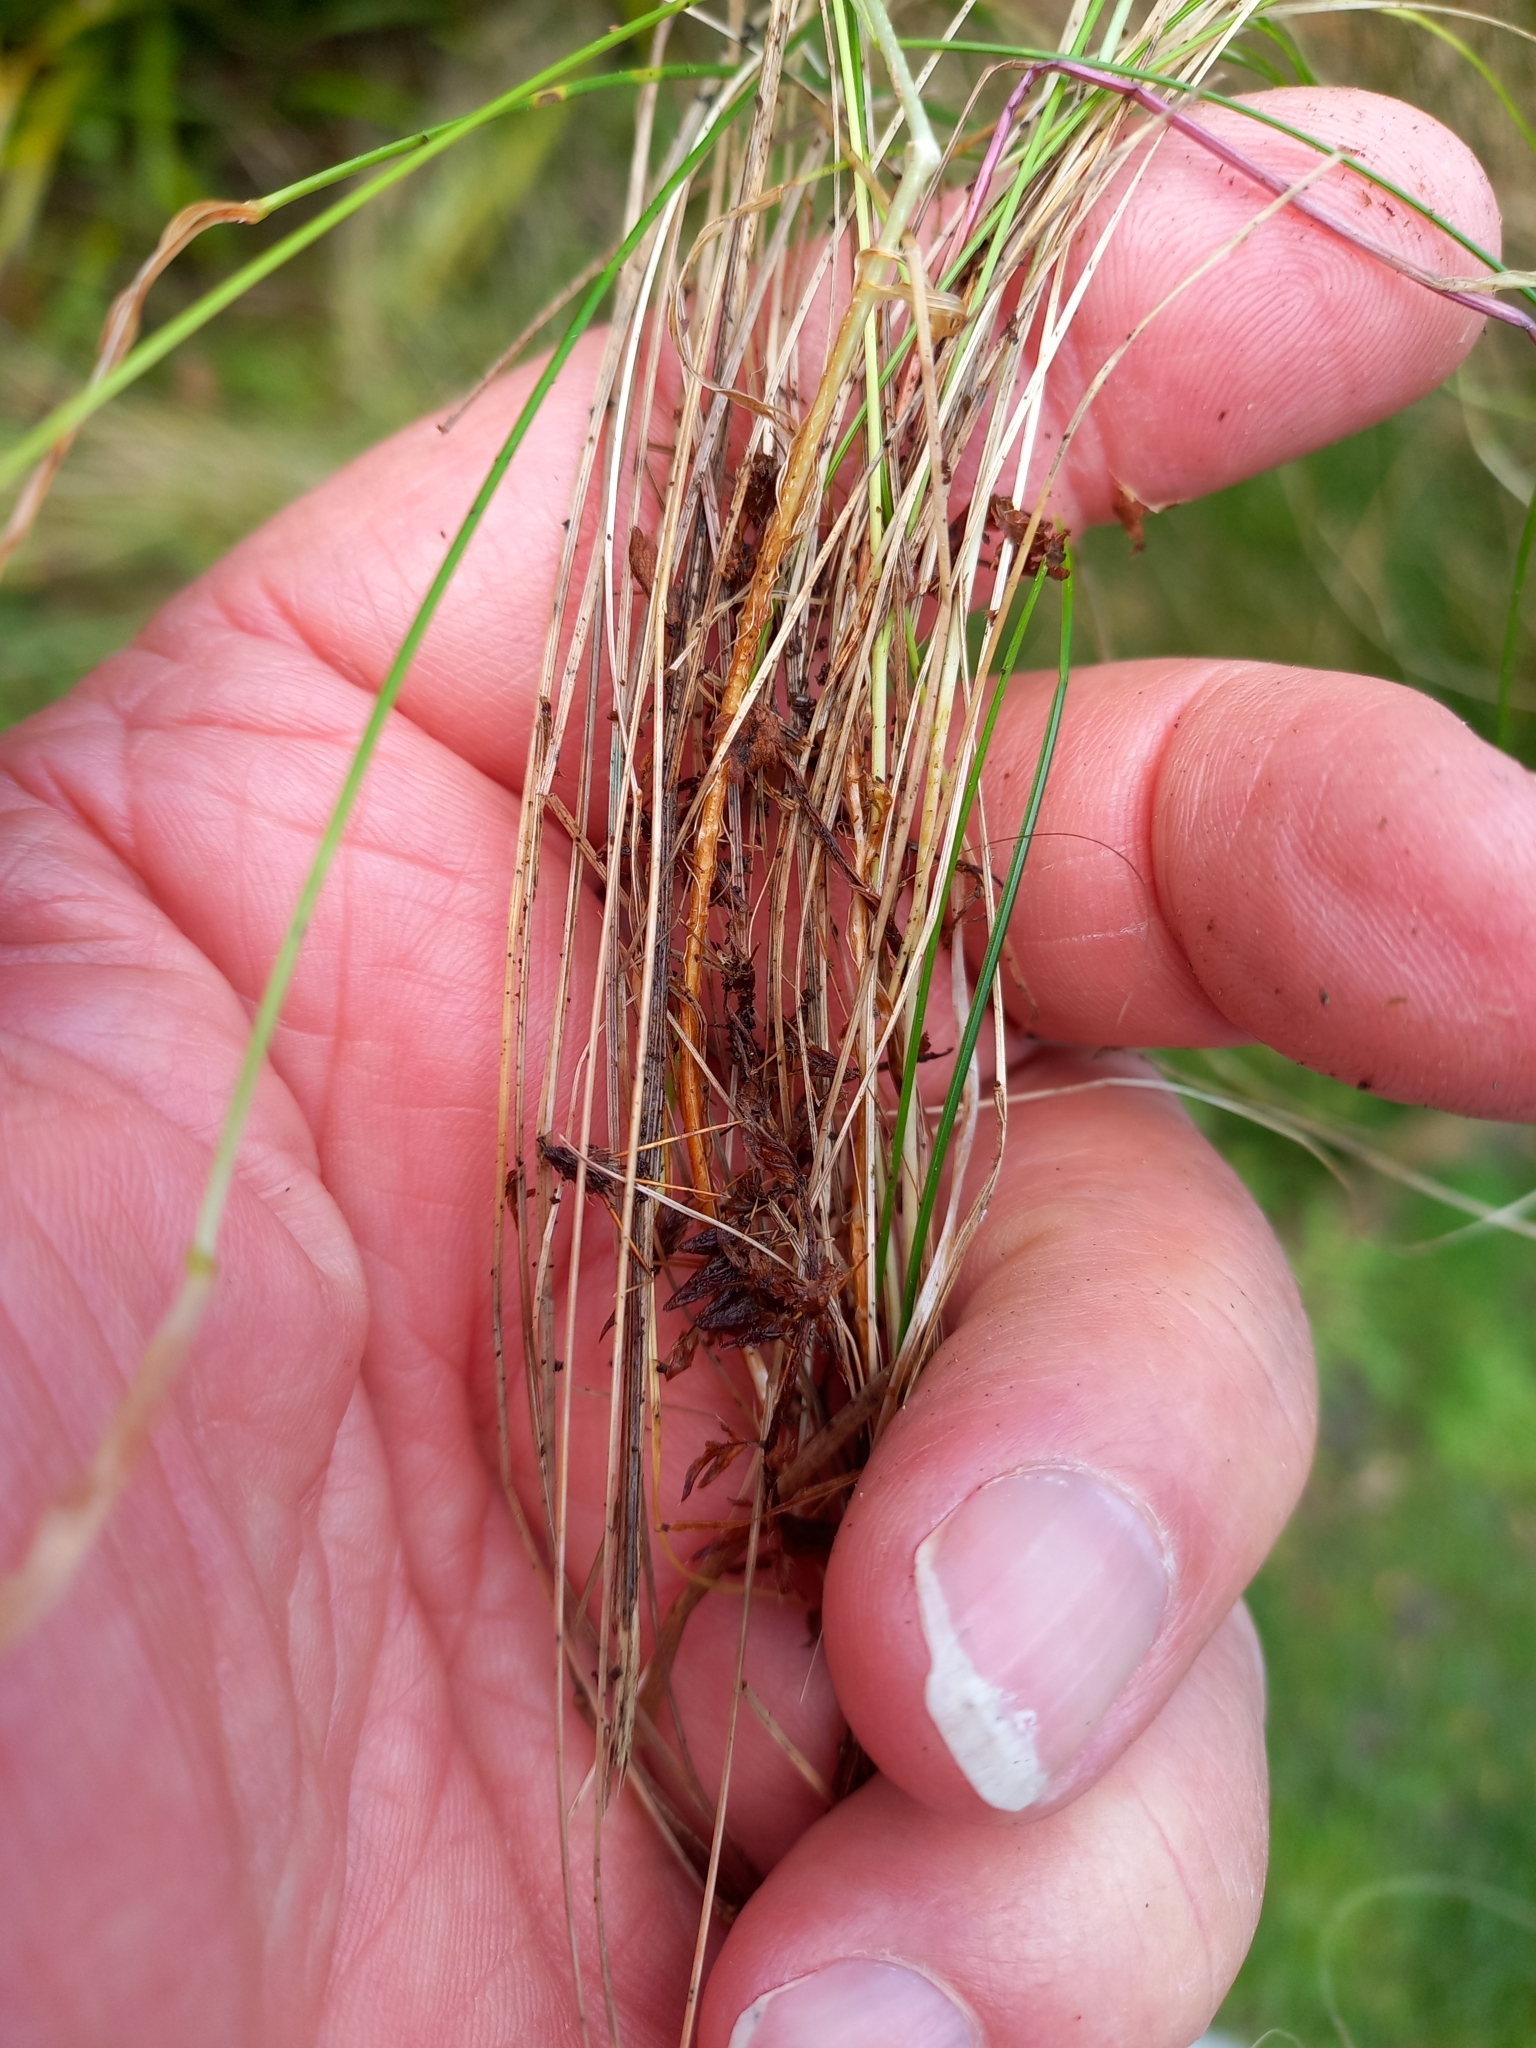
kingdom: Plantae
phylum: Tracheophyta
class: Liliopsida
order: Poales
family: Poaceae
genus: Festuca
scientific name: Festuca rubra
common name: Red fescue
